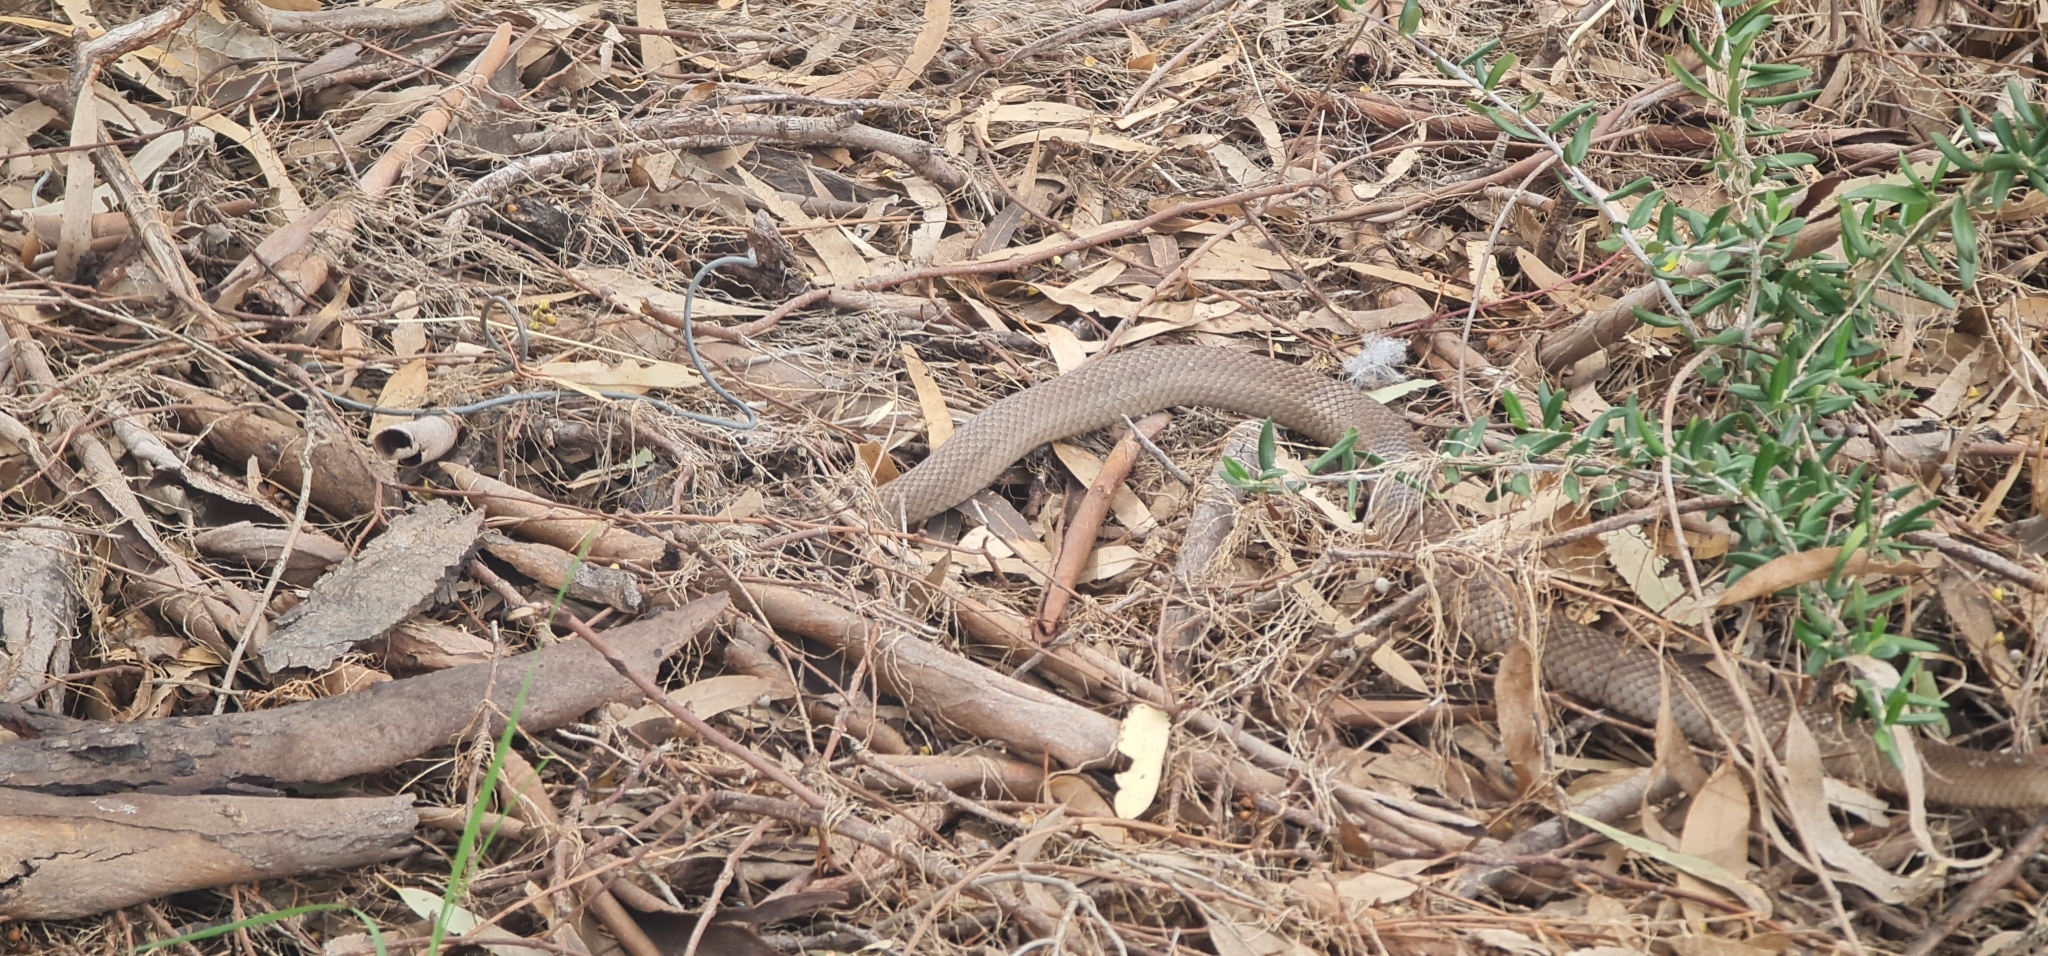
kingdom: Animalia
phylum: Chordata
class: Squamata
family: Elapidae
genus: Pseudonaja
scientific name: Pseudonaja textilis
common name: Eastern brown snake
